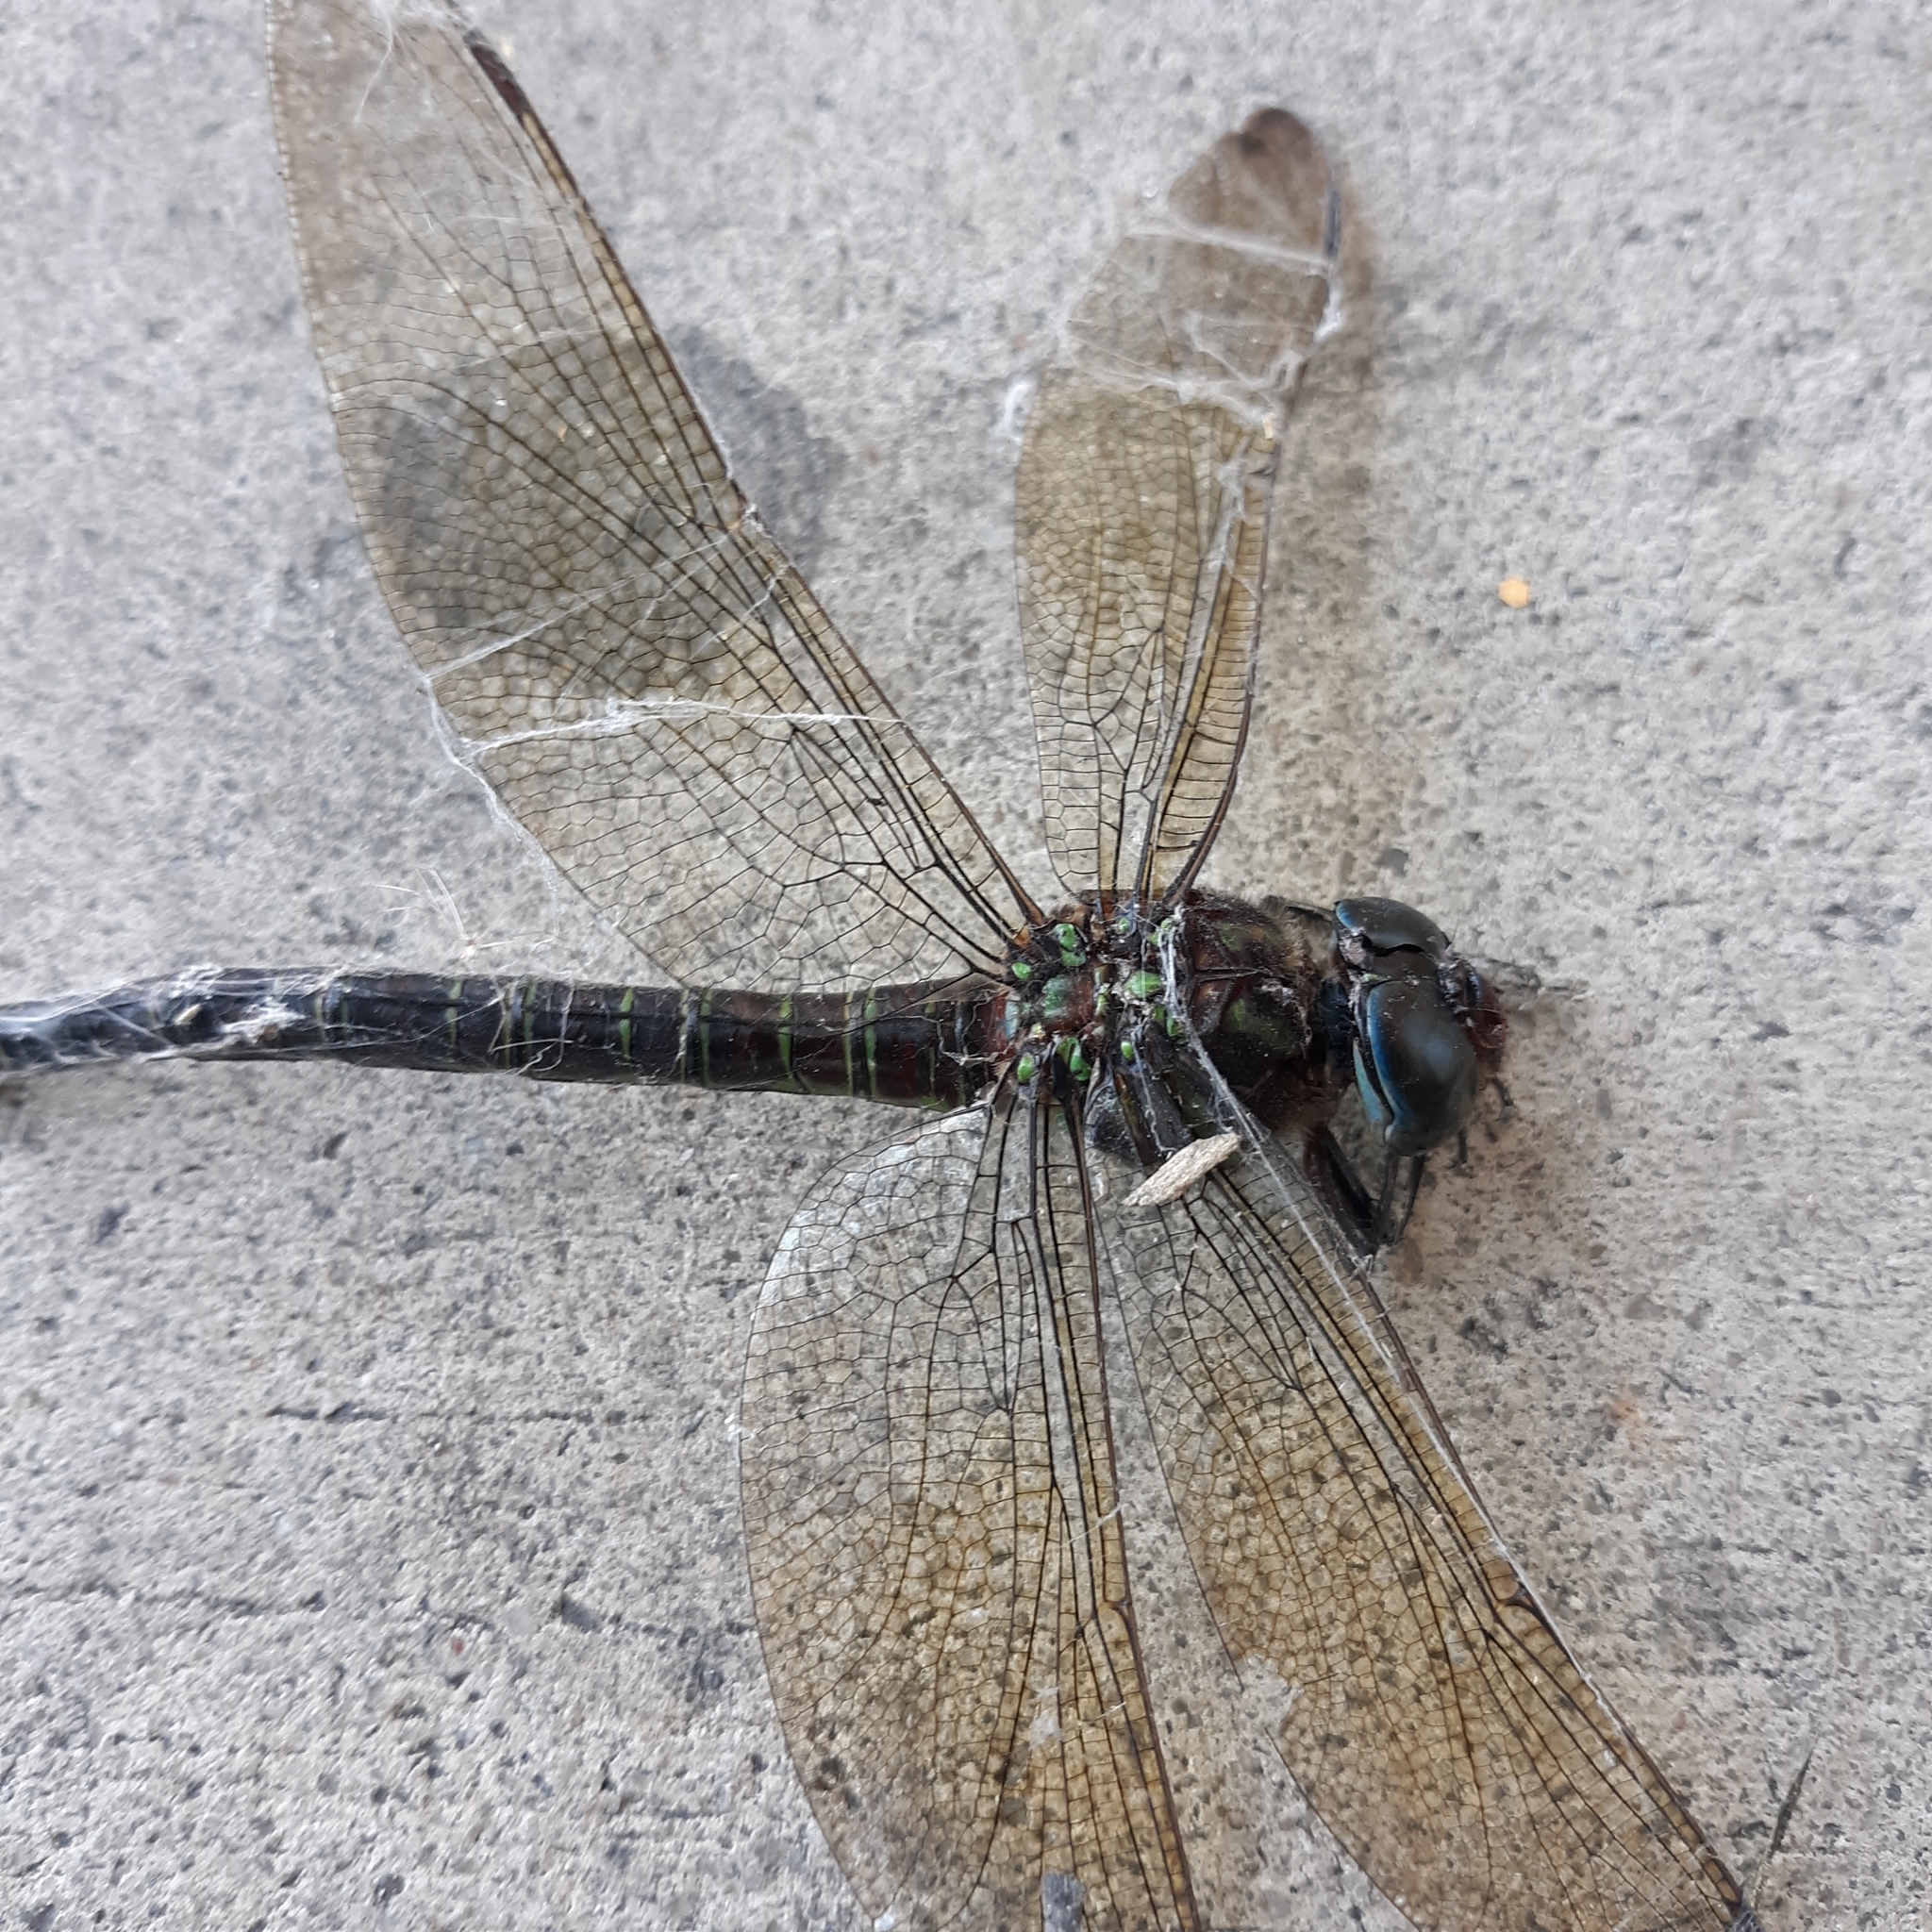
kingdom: Animalia
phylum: Arthropoda
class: Insecta
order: Odonata
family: Aeshnidae
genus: Epiaeschna
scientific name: Epiaeschna heros
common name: Swamp darner
